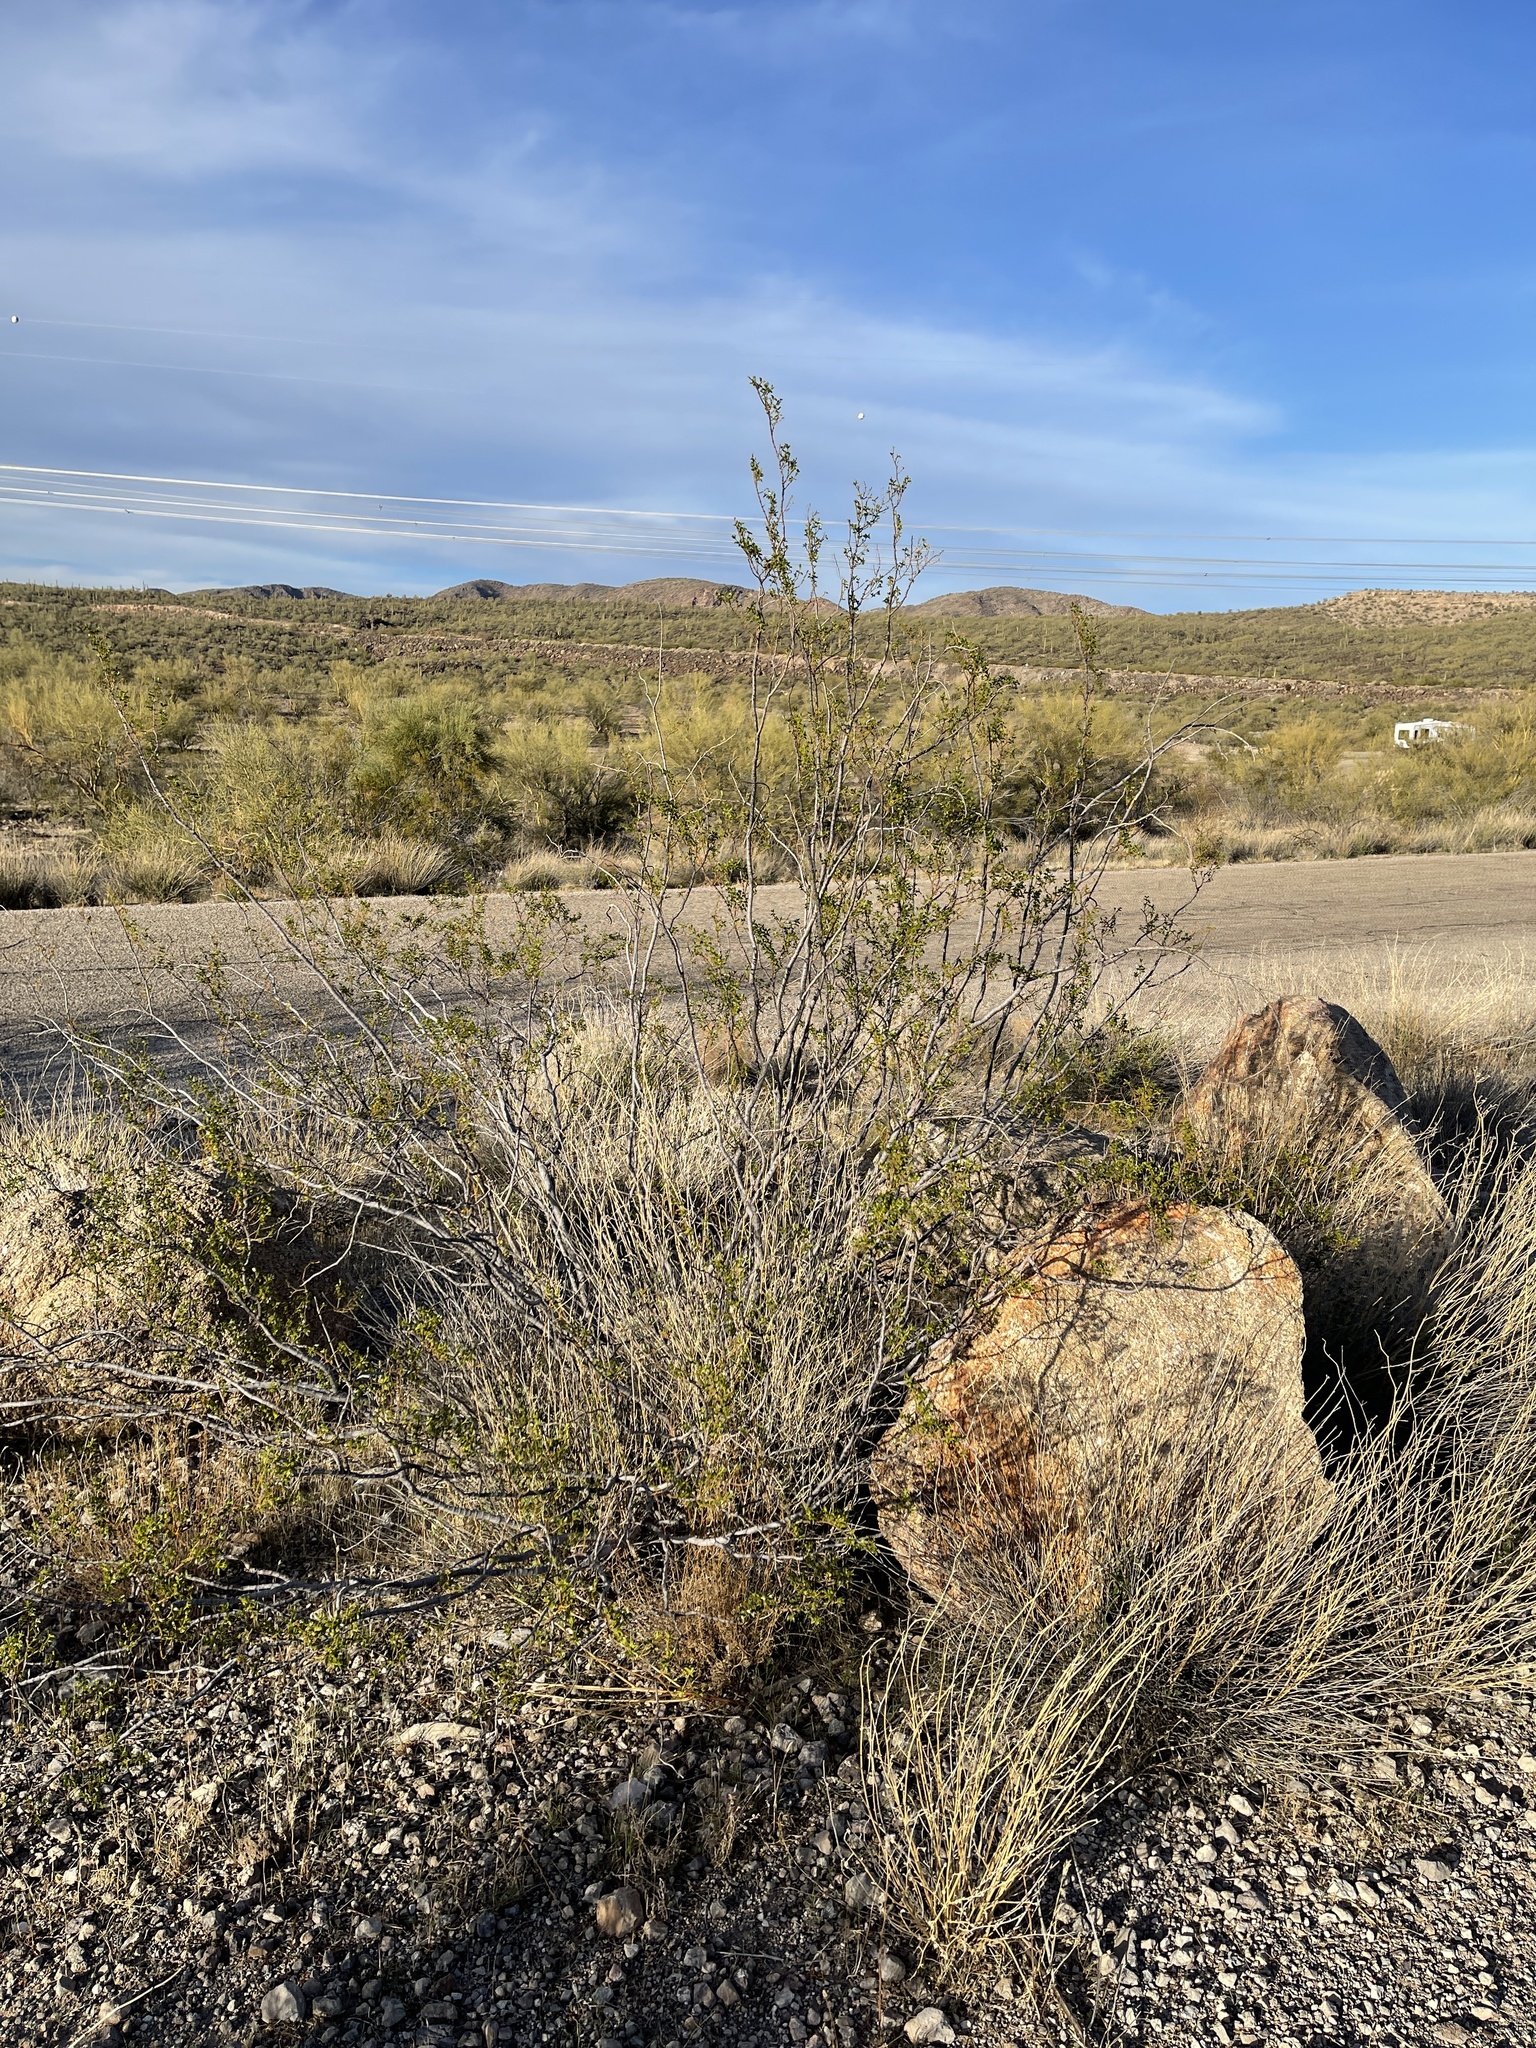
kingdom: Plantae
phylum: Tracheophyta
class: Magnoliopsida
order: Zygophyllales
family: Zygophyllaceae
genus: Larrea
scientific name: Larrea tridentata
